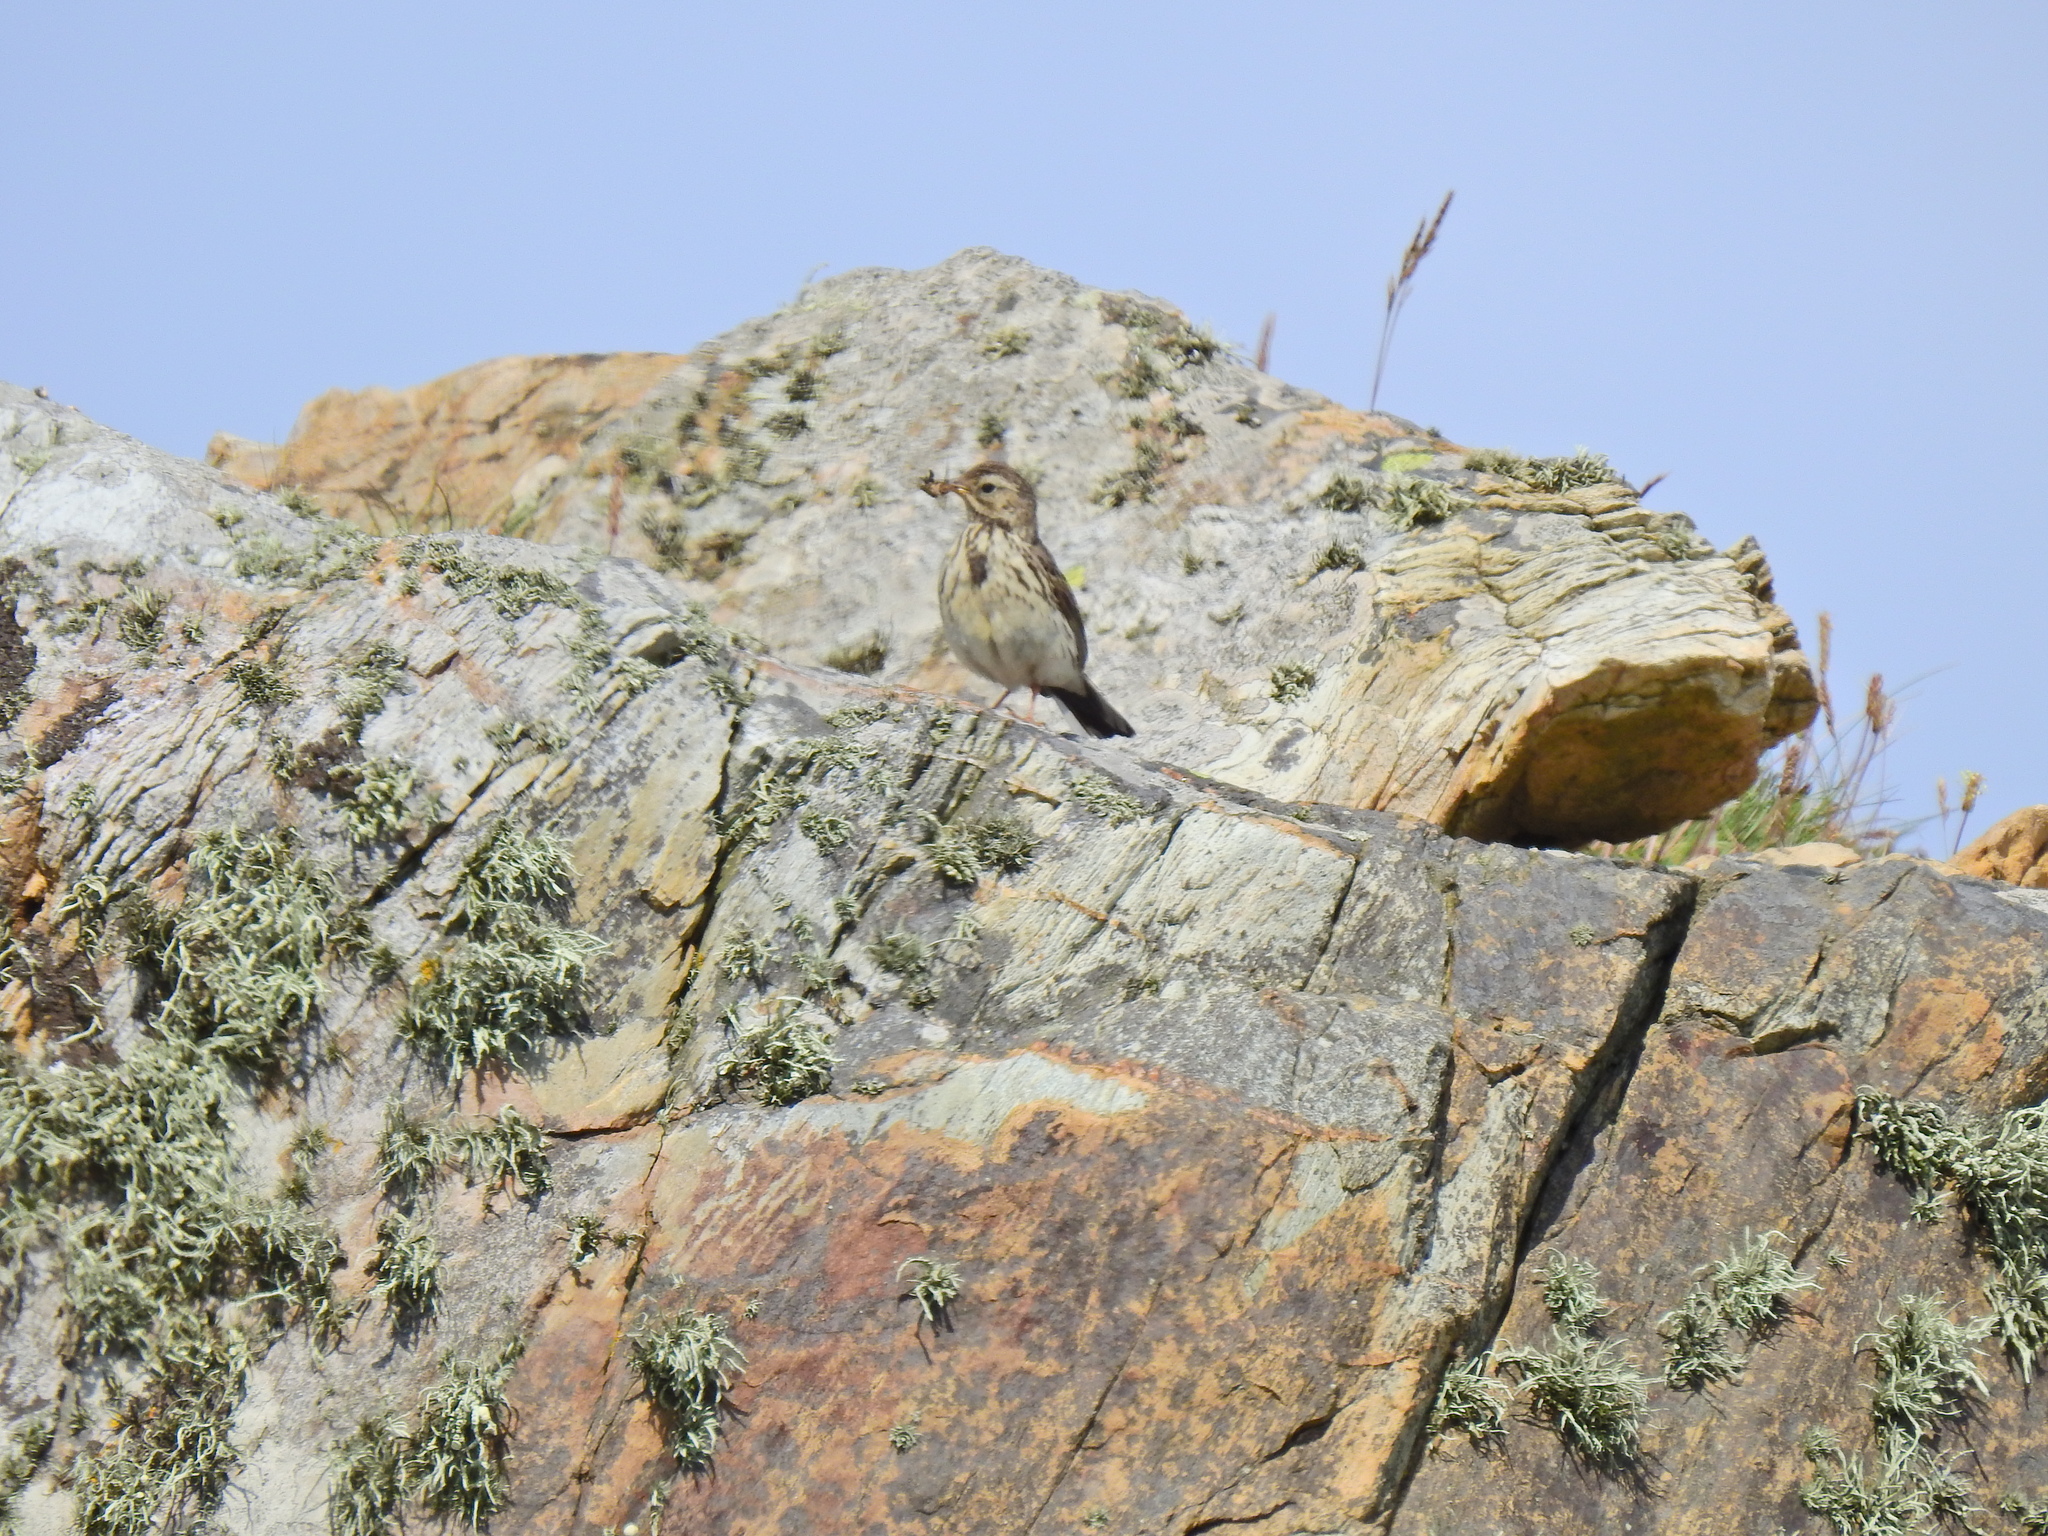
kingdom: Animalia
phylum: Chordata
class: Aves
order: Passeriformes
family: Motacillidae
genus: Anthus
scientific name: Anthus pratensis
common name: Meadow pipit
